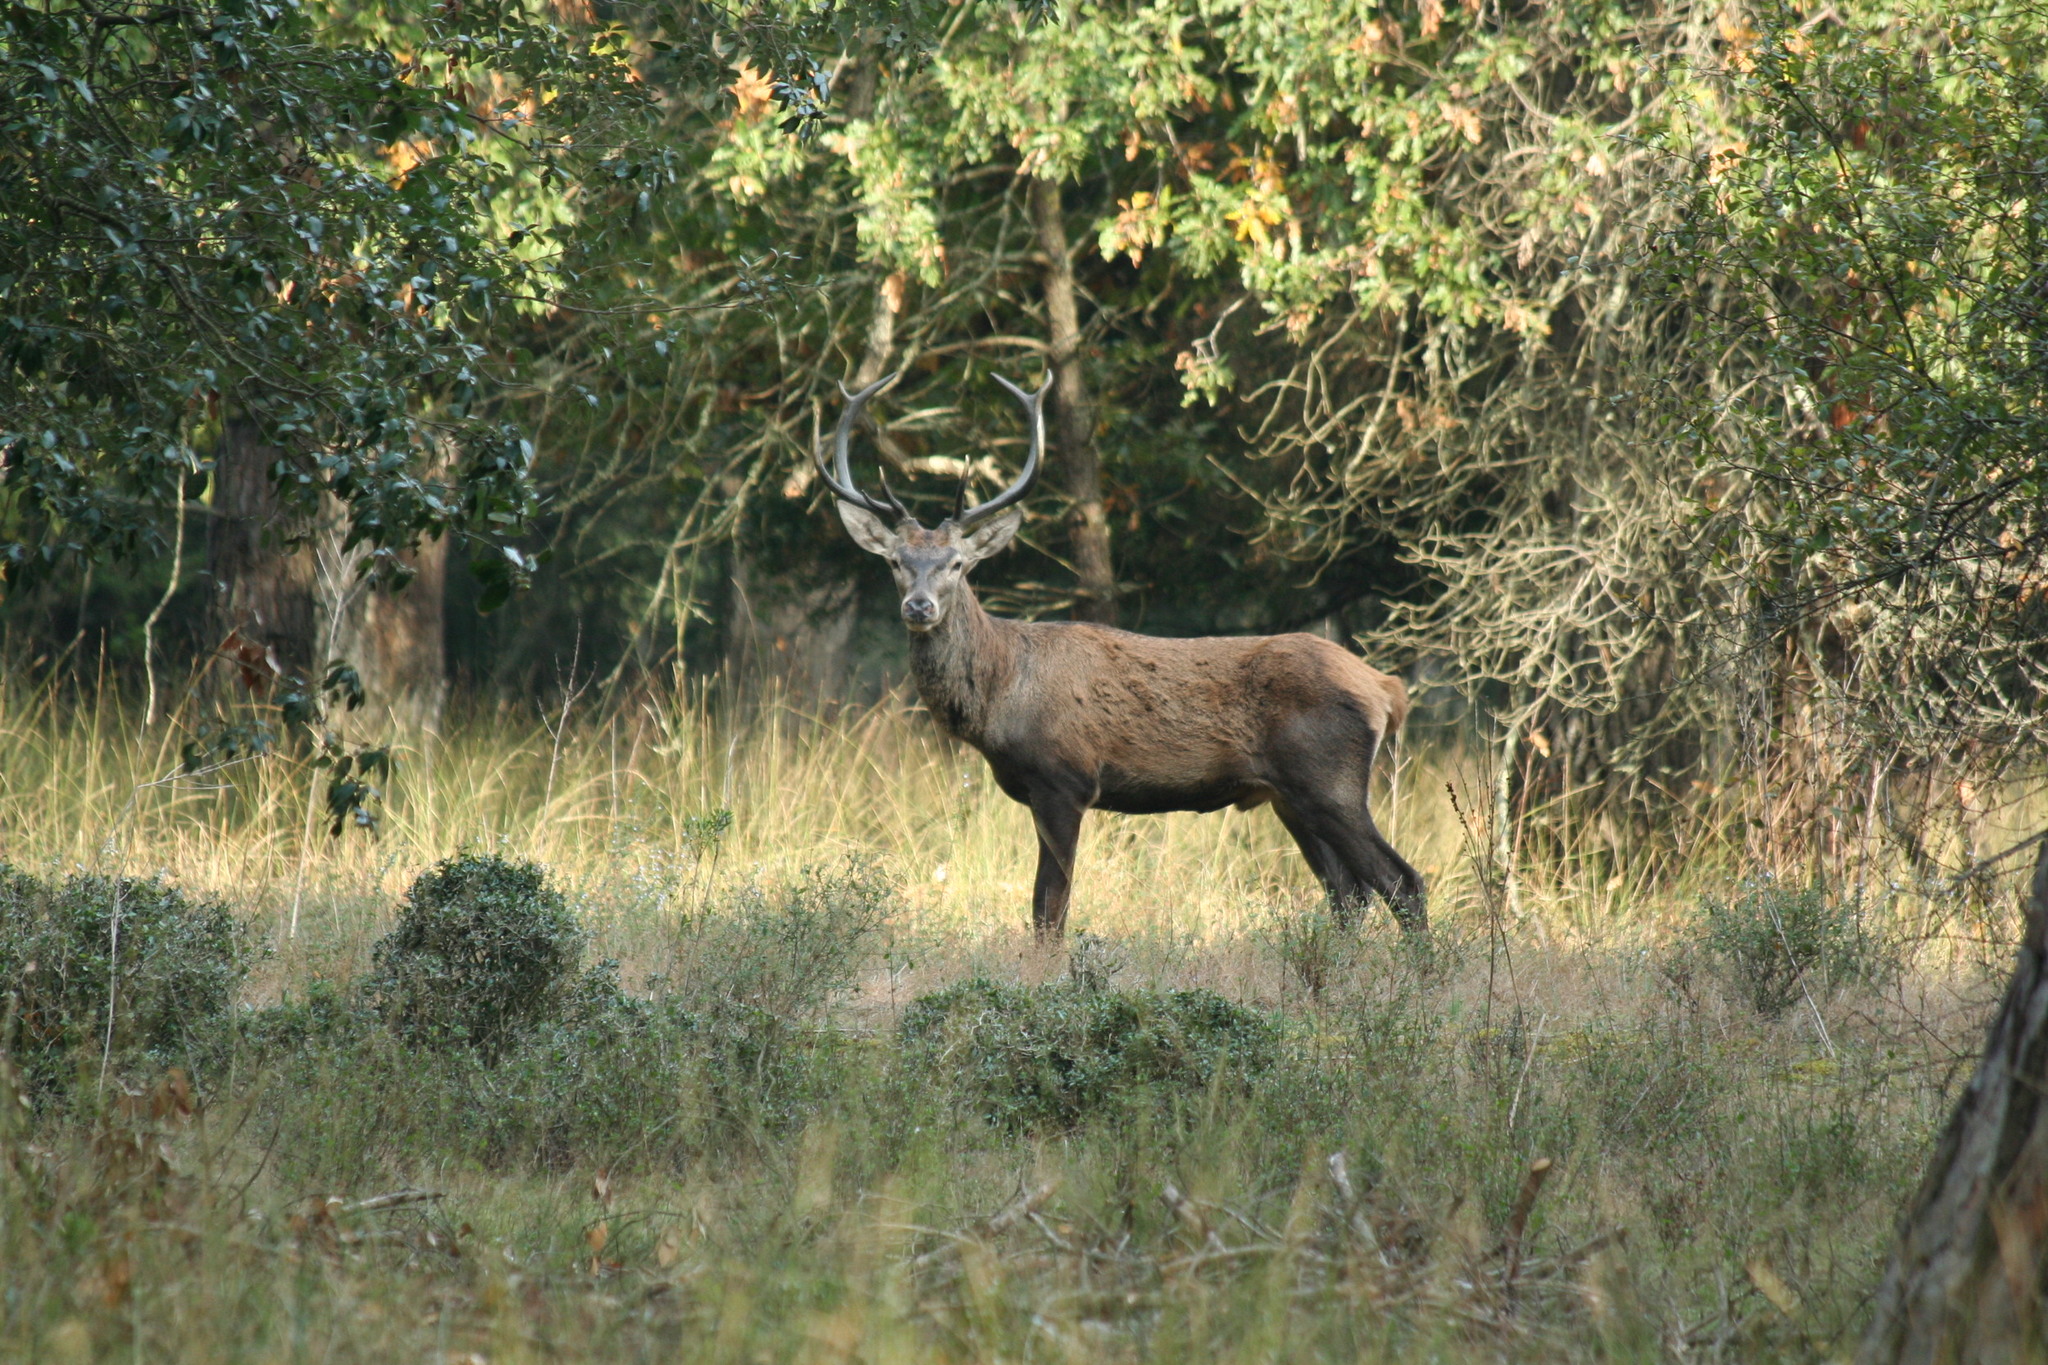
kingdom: Animalia
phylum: Chordata
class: Mammalia
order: Artiodactyla
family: Cervidae
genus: Cervus
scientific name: Cervus elaphus
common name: Red deer
